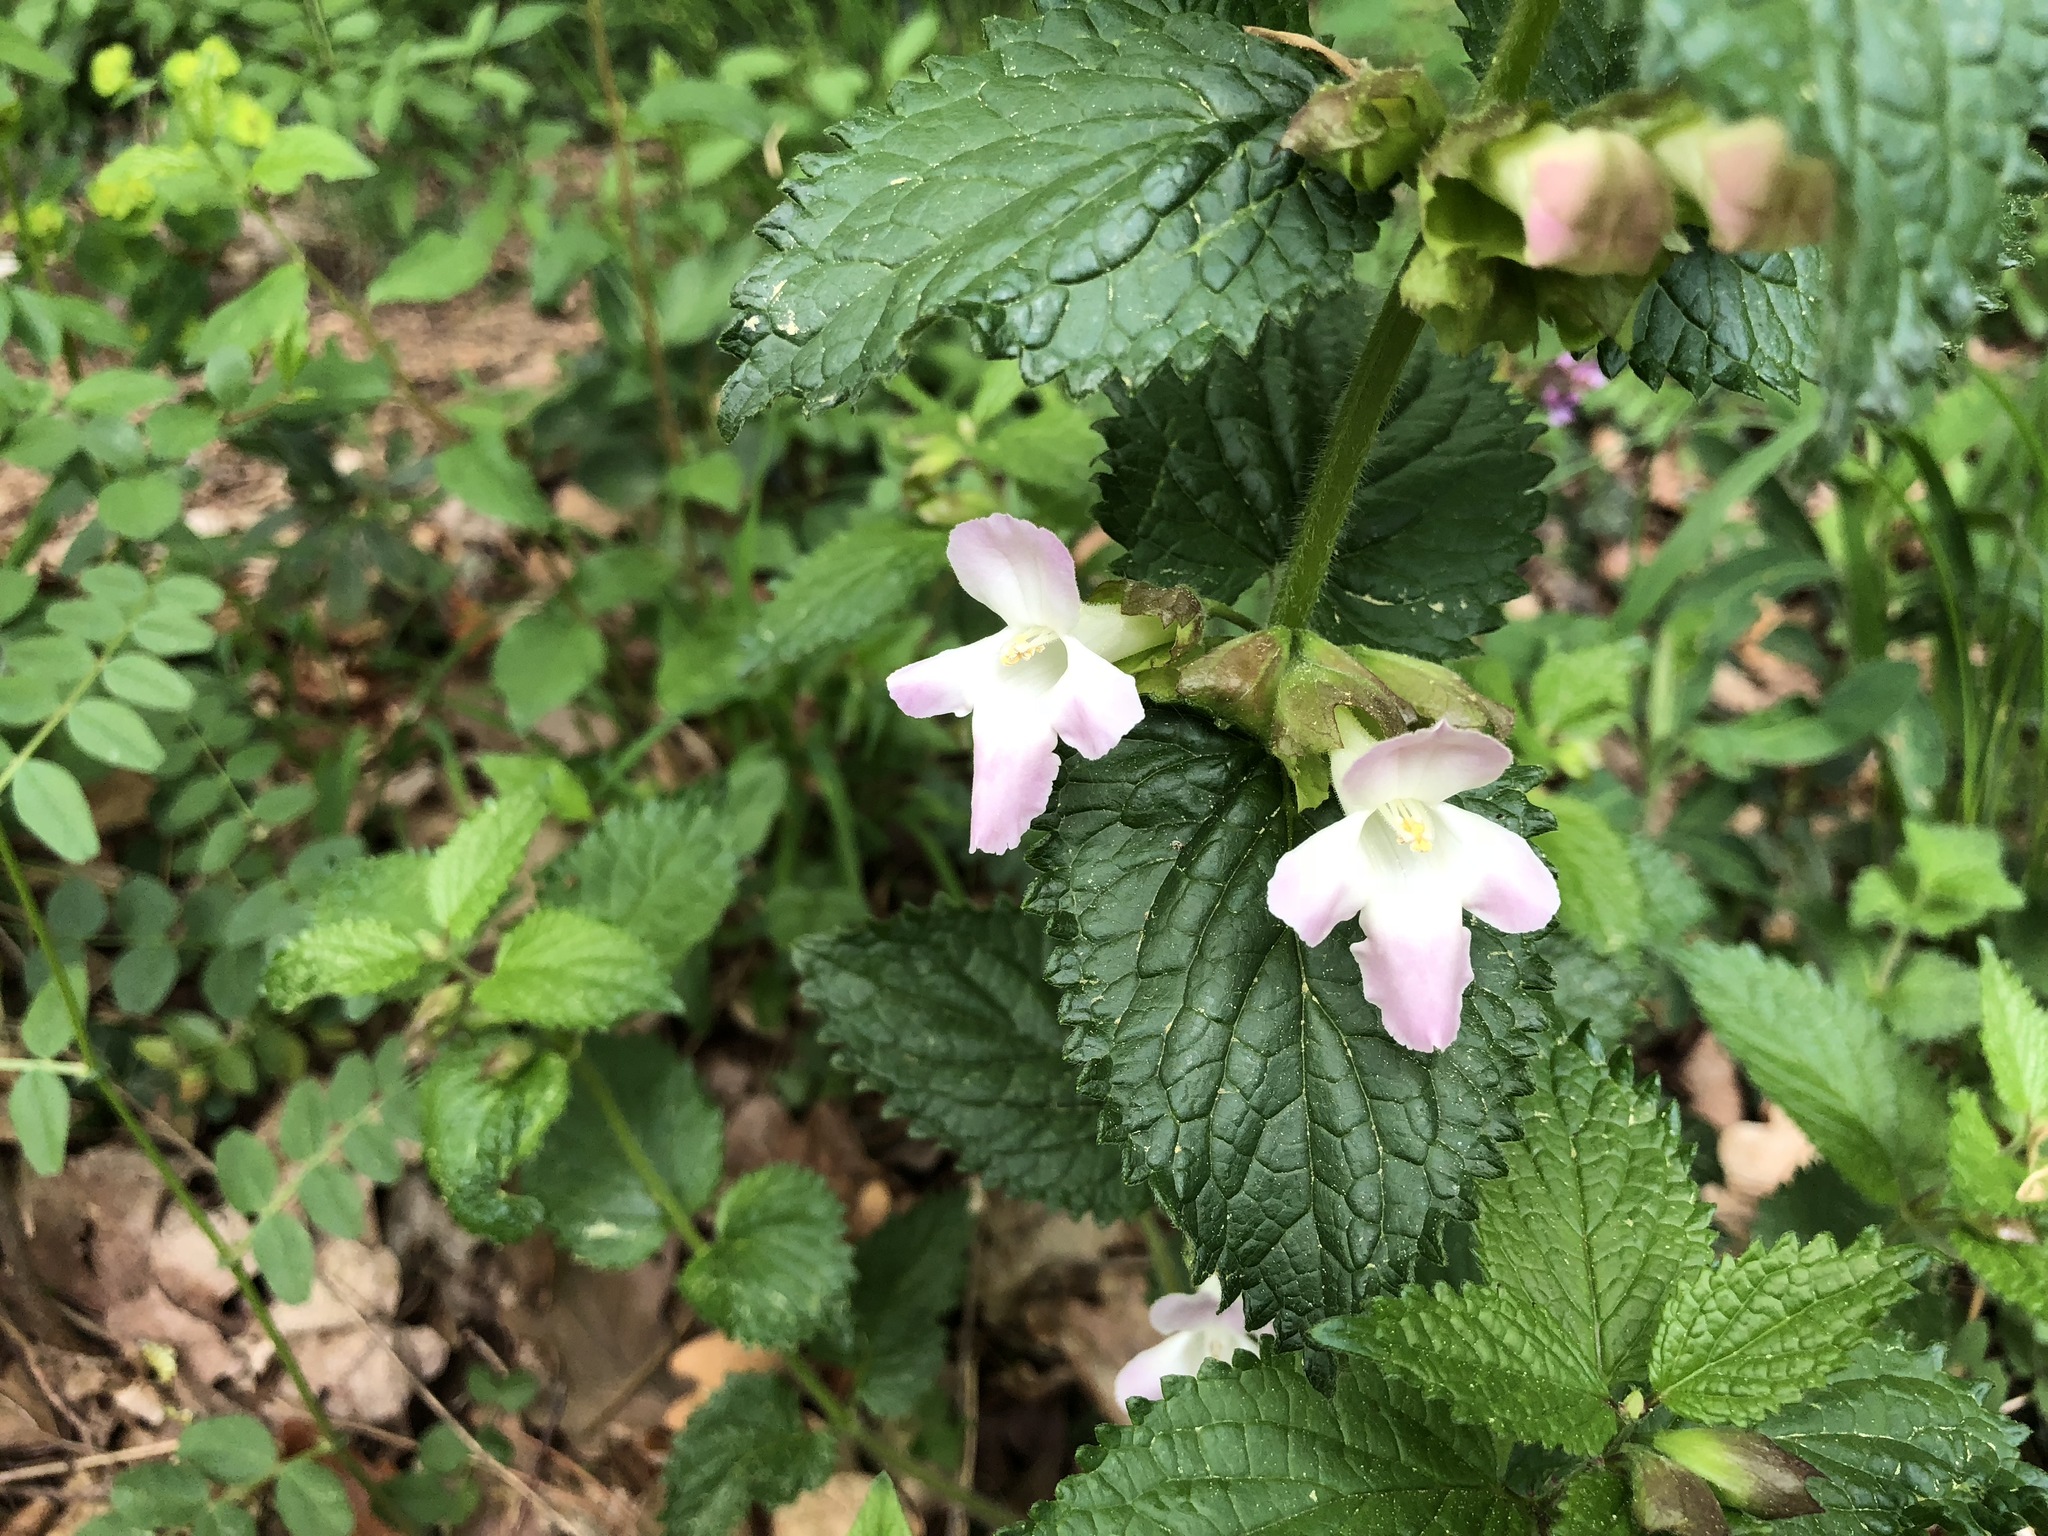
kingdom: Plantae
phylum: Tracheophyta
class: Magnoliopsida
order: Lamiales
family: Lamiaceae
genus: Melittis
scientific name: Melittis melissophyllum
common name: Bastard balm
